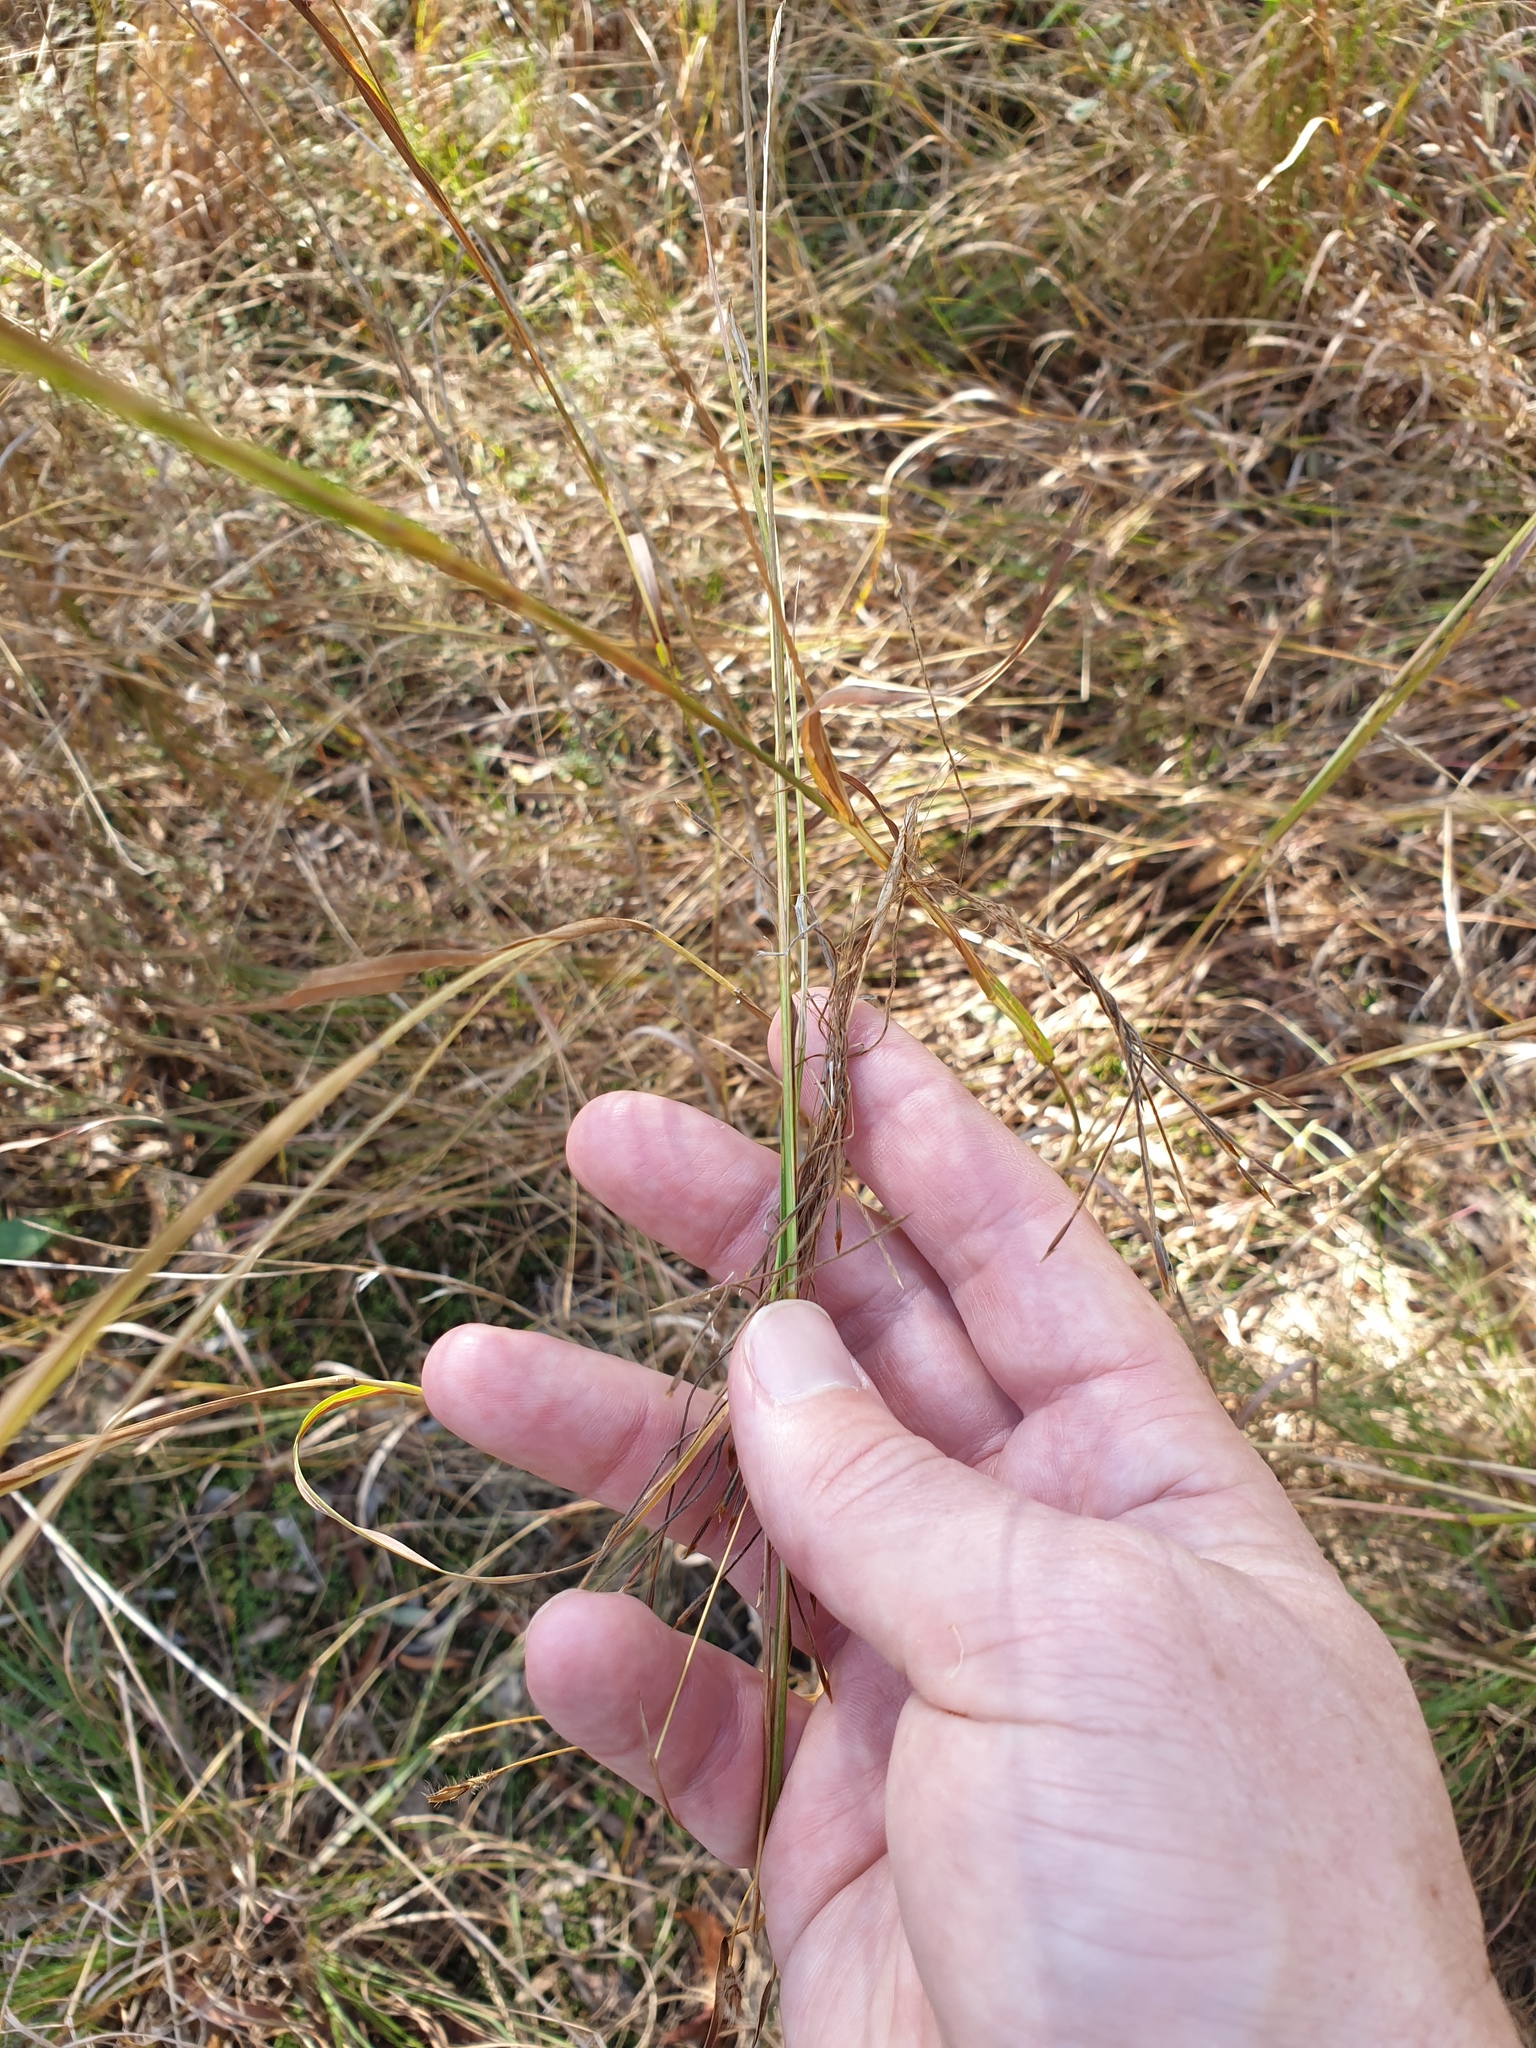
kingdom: Plantae
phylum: Tracheophyta
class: Liliopsida
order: Poales
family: Poaceae
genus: Heteropogon
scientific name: Heteropogon contortus
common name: Tanglehead
